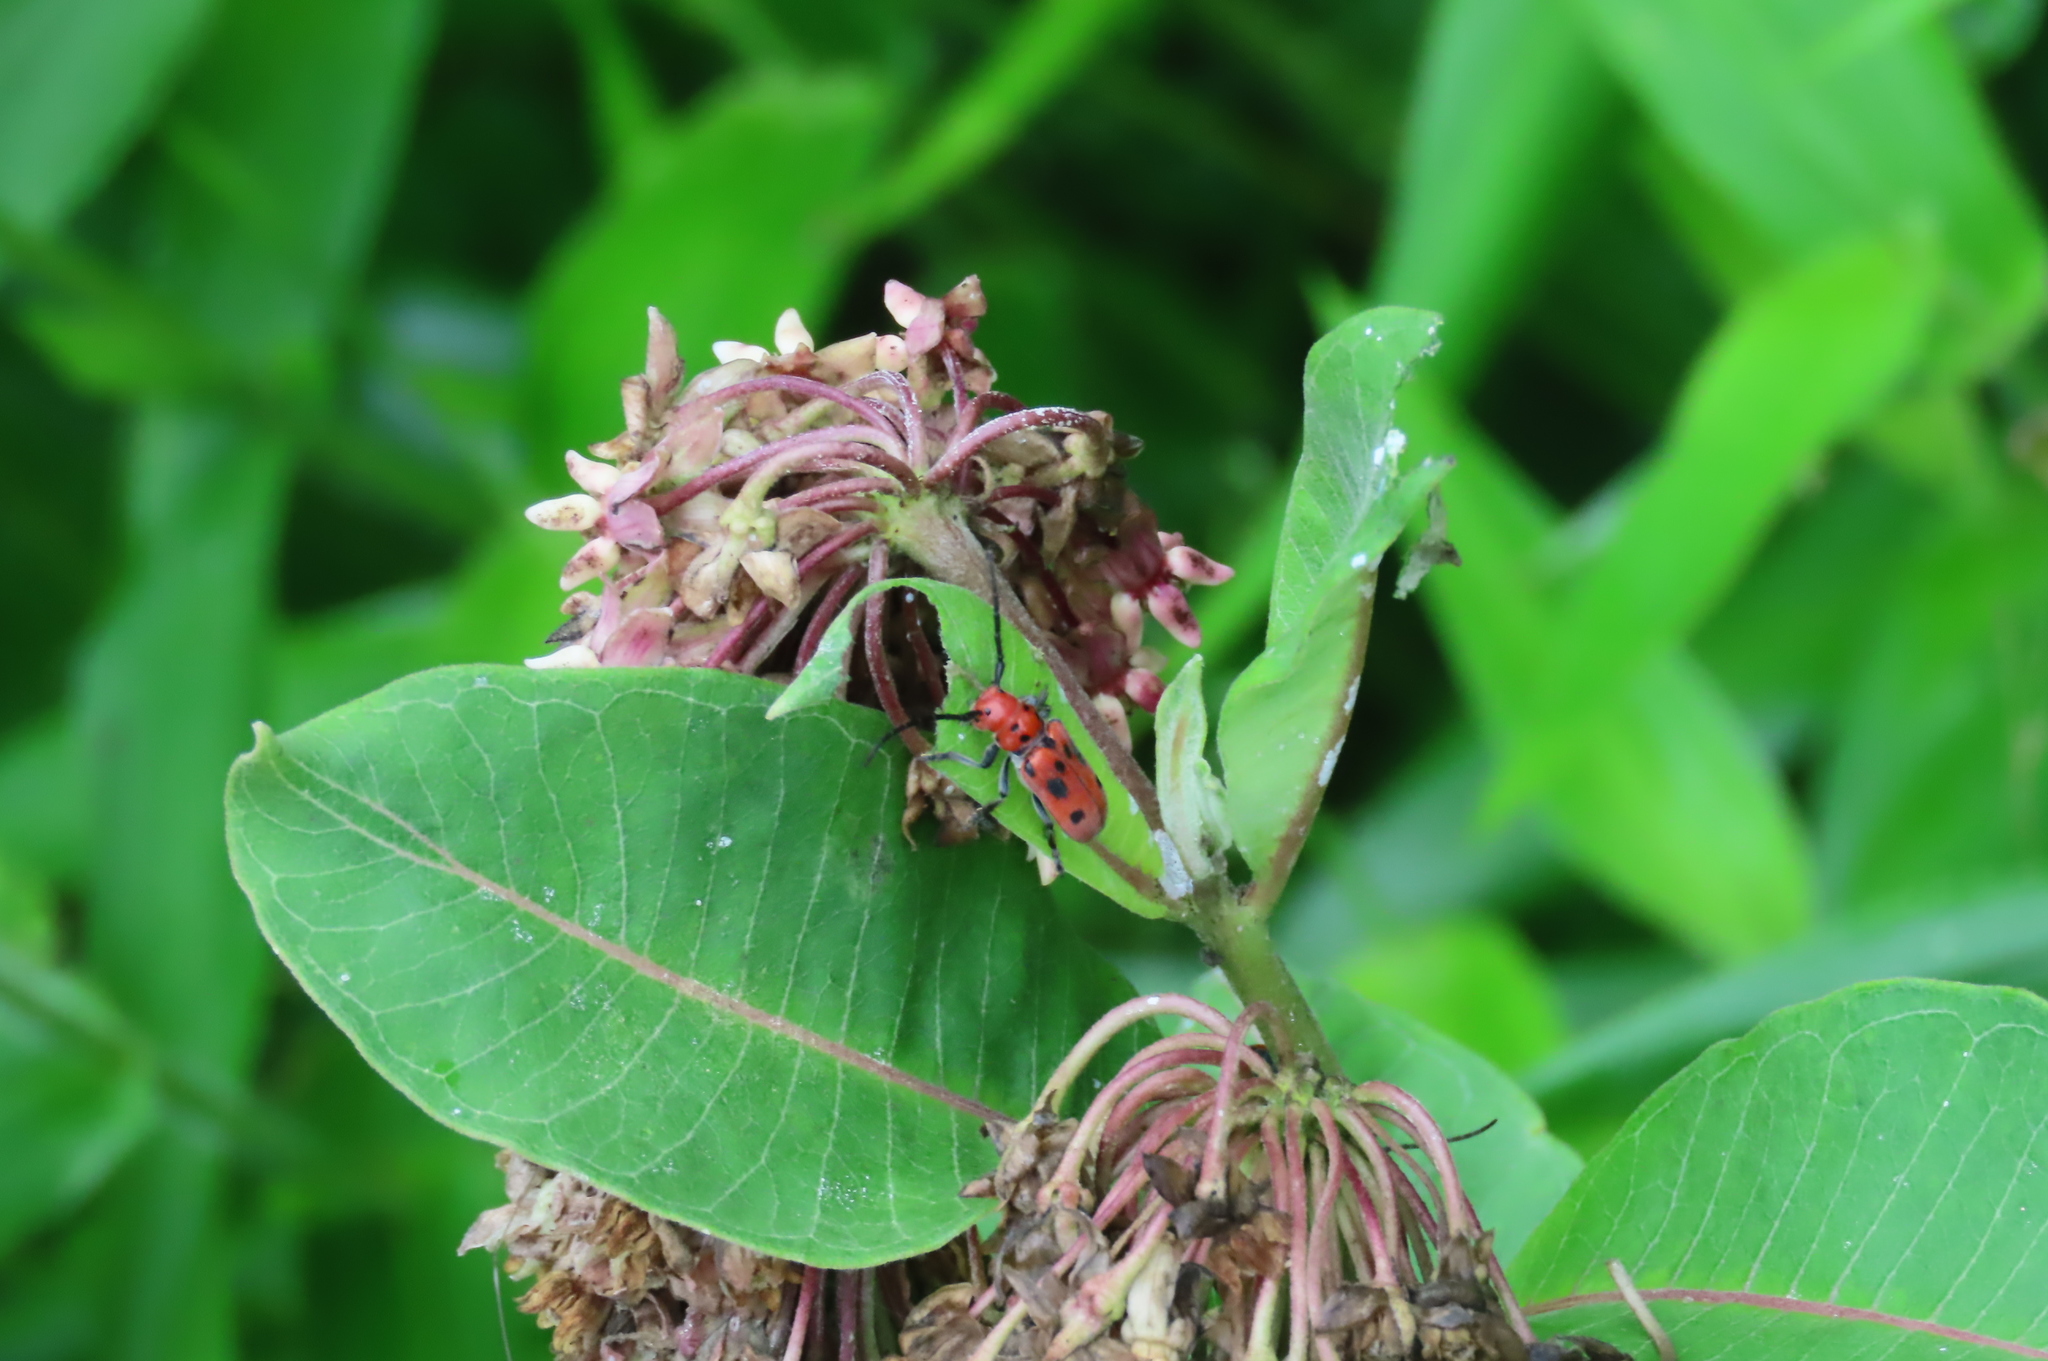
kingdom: Animalia
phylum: Arthropoda
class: Insecta
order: Coleoptera
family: Cerambycidae
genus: Tetraopes
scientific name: Tetraopes tetrophthalmus
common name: Red milkweed beetle
